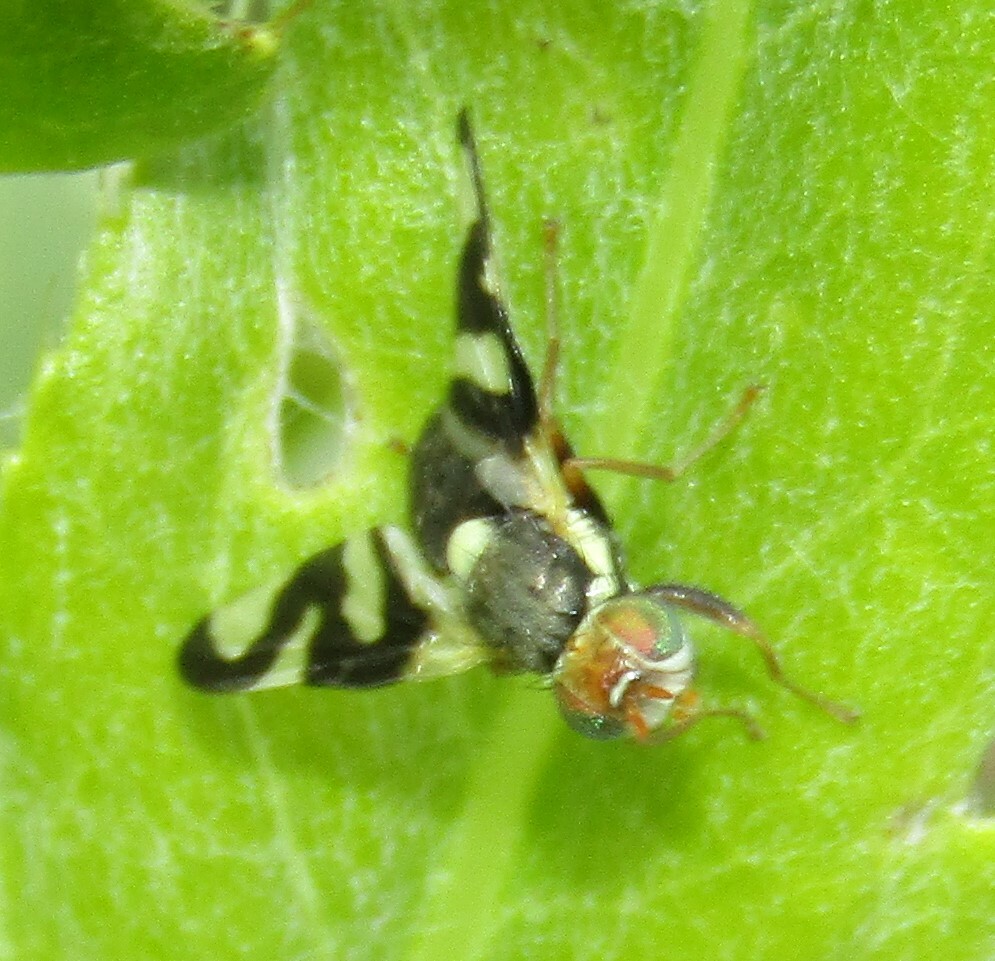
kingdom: Animalia
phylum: Arthropoda
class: Insecta
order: Diptera
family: Tephritidae
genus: Urophora
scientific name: Urophora cardui
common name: Fruit fly
